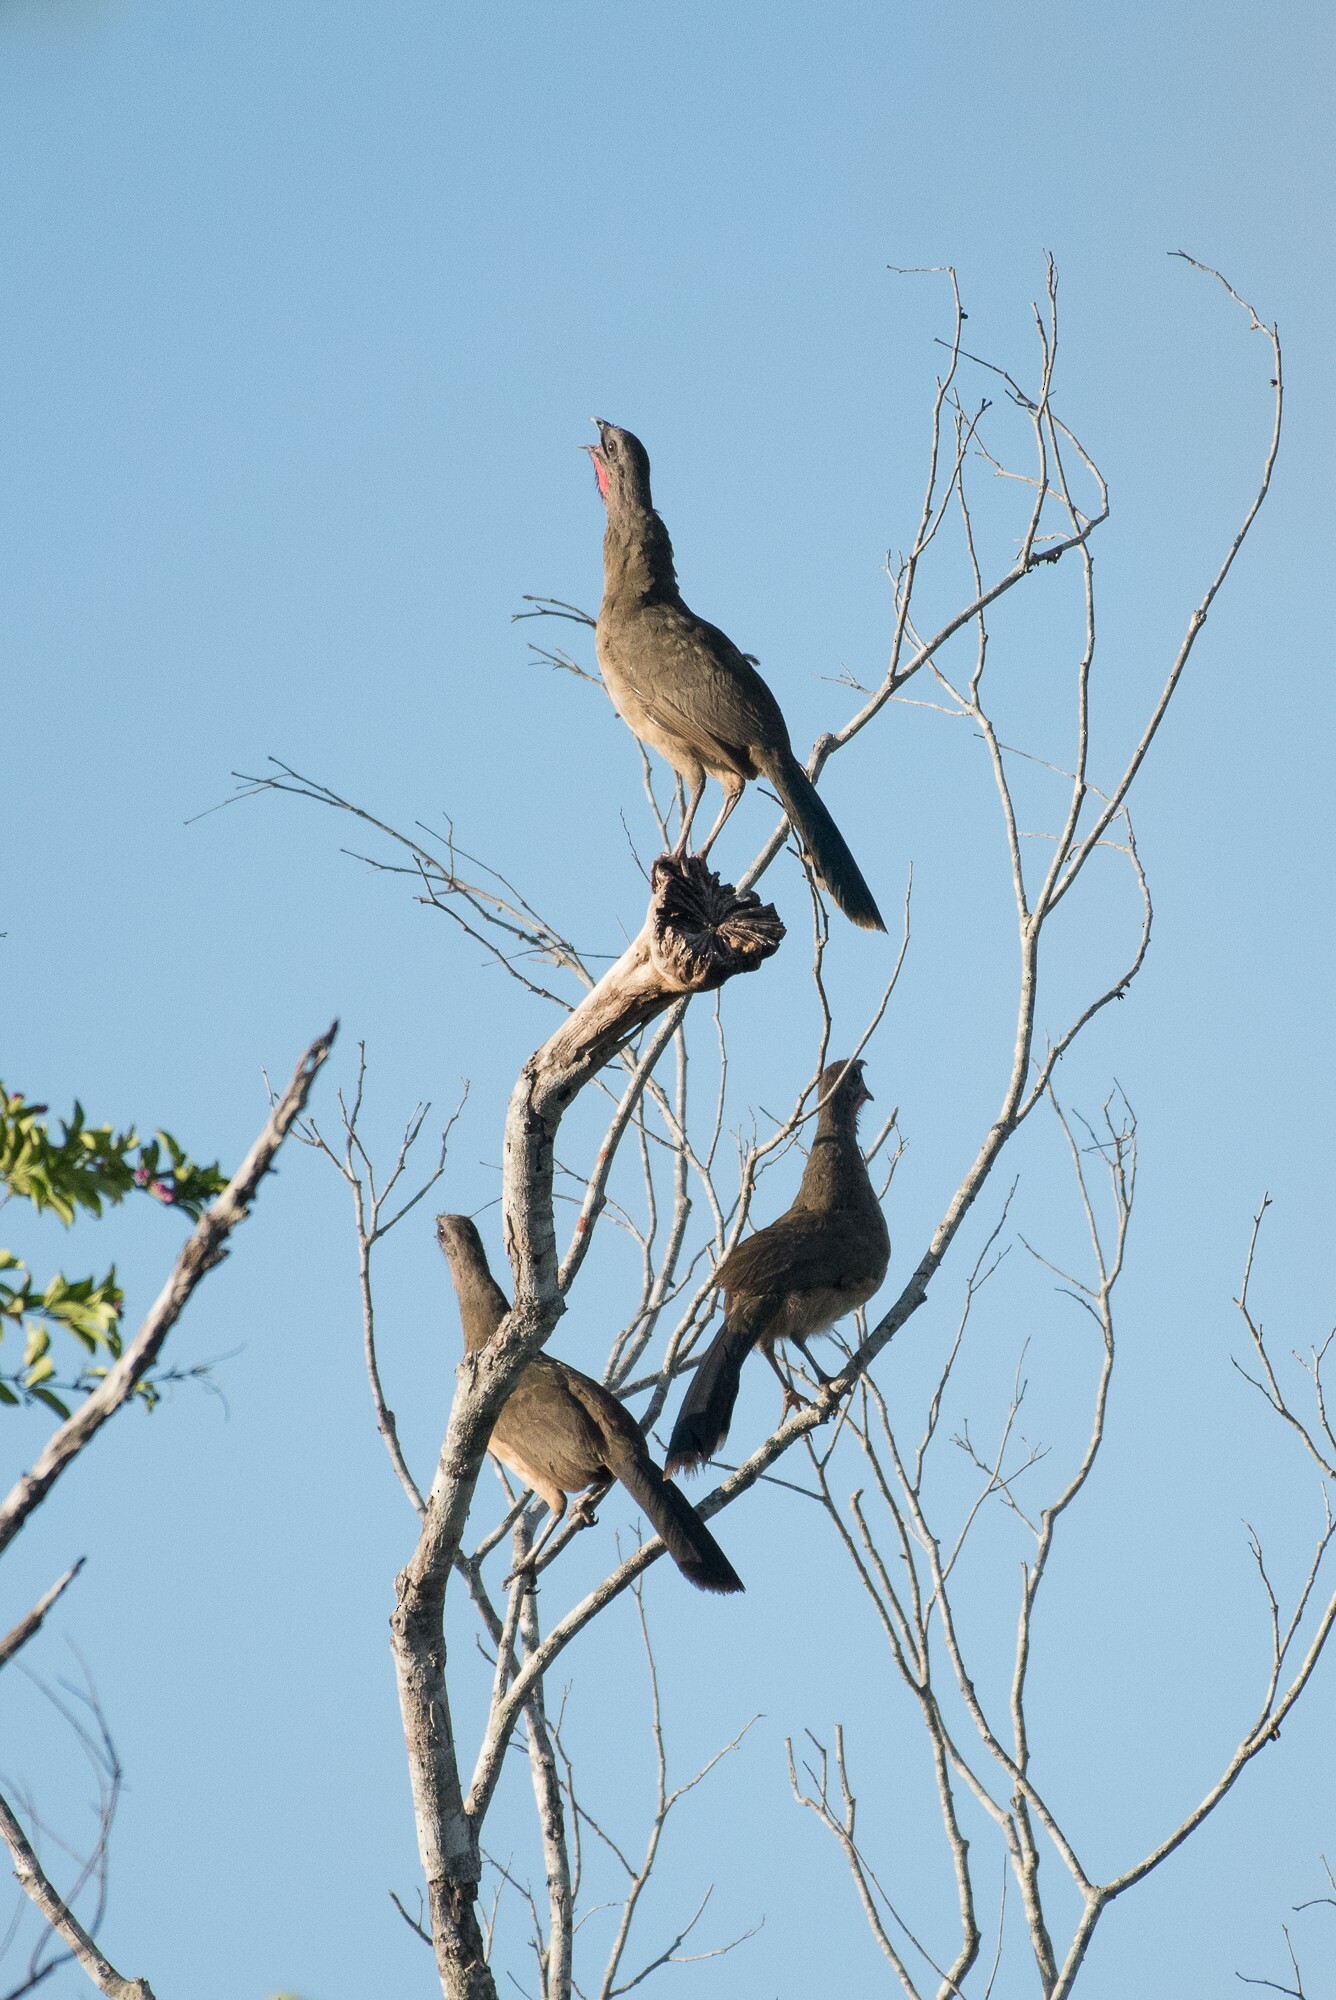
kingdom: Animalia
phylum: Chordata
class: Aves
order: Galliformes
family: Cracidae
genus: Ortalis
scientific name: Ortalis vetula
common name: Plain chachalaca
